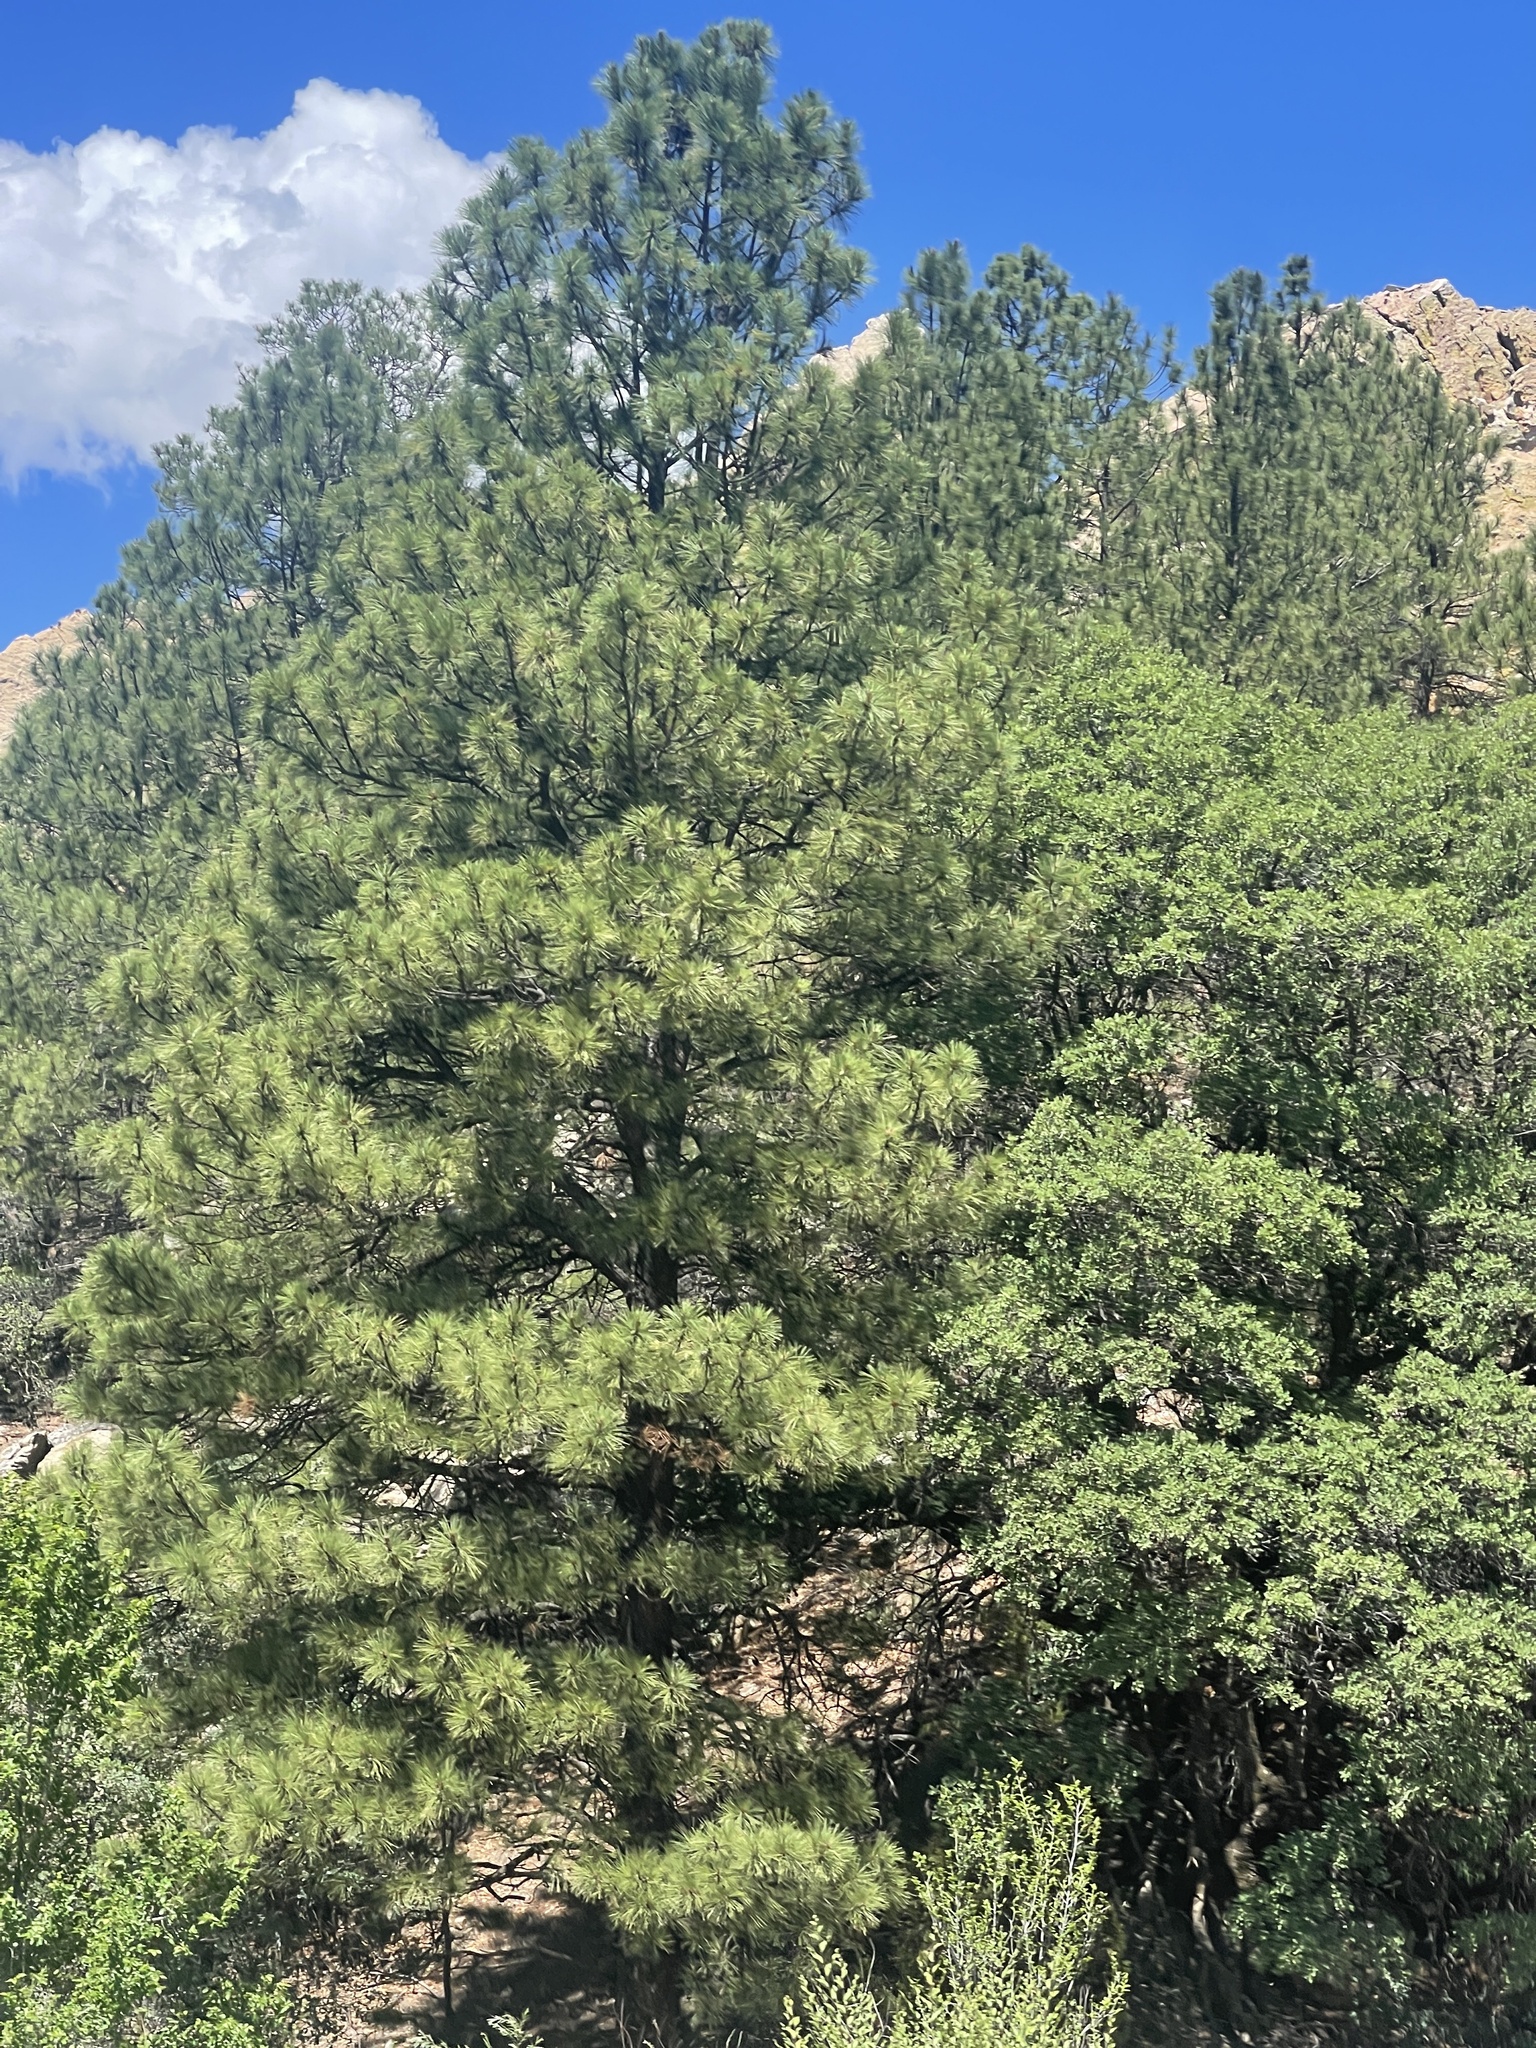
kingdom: Plantae
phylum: Tracheophyta
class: Pinopsida
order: Pinales
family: Pinaceae
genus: Pinus
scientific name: Pinus ponderosa
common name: Western yellow-pine
